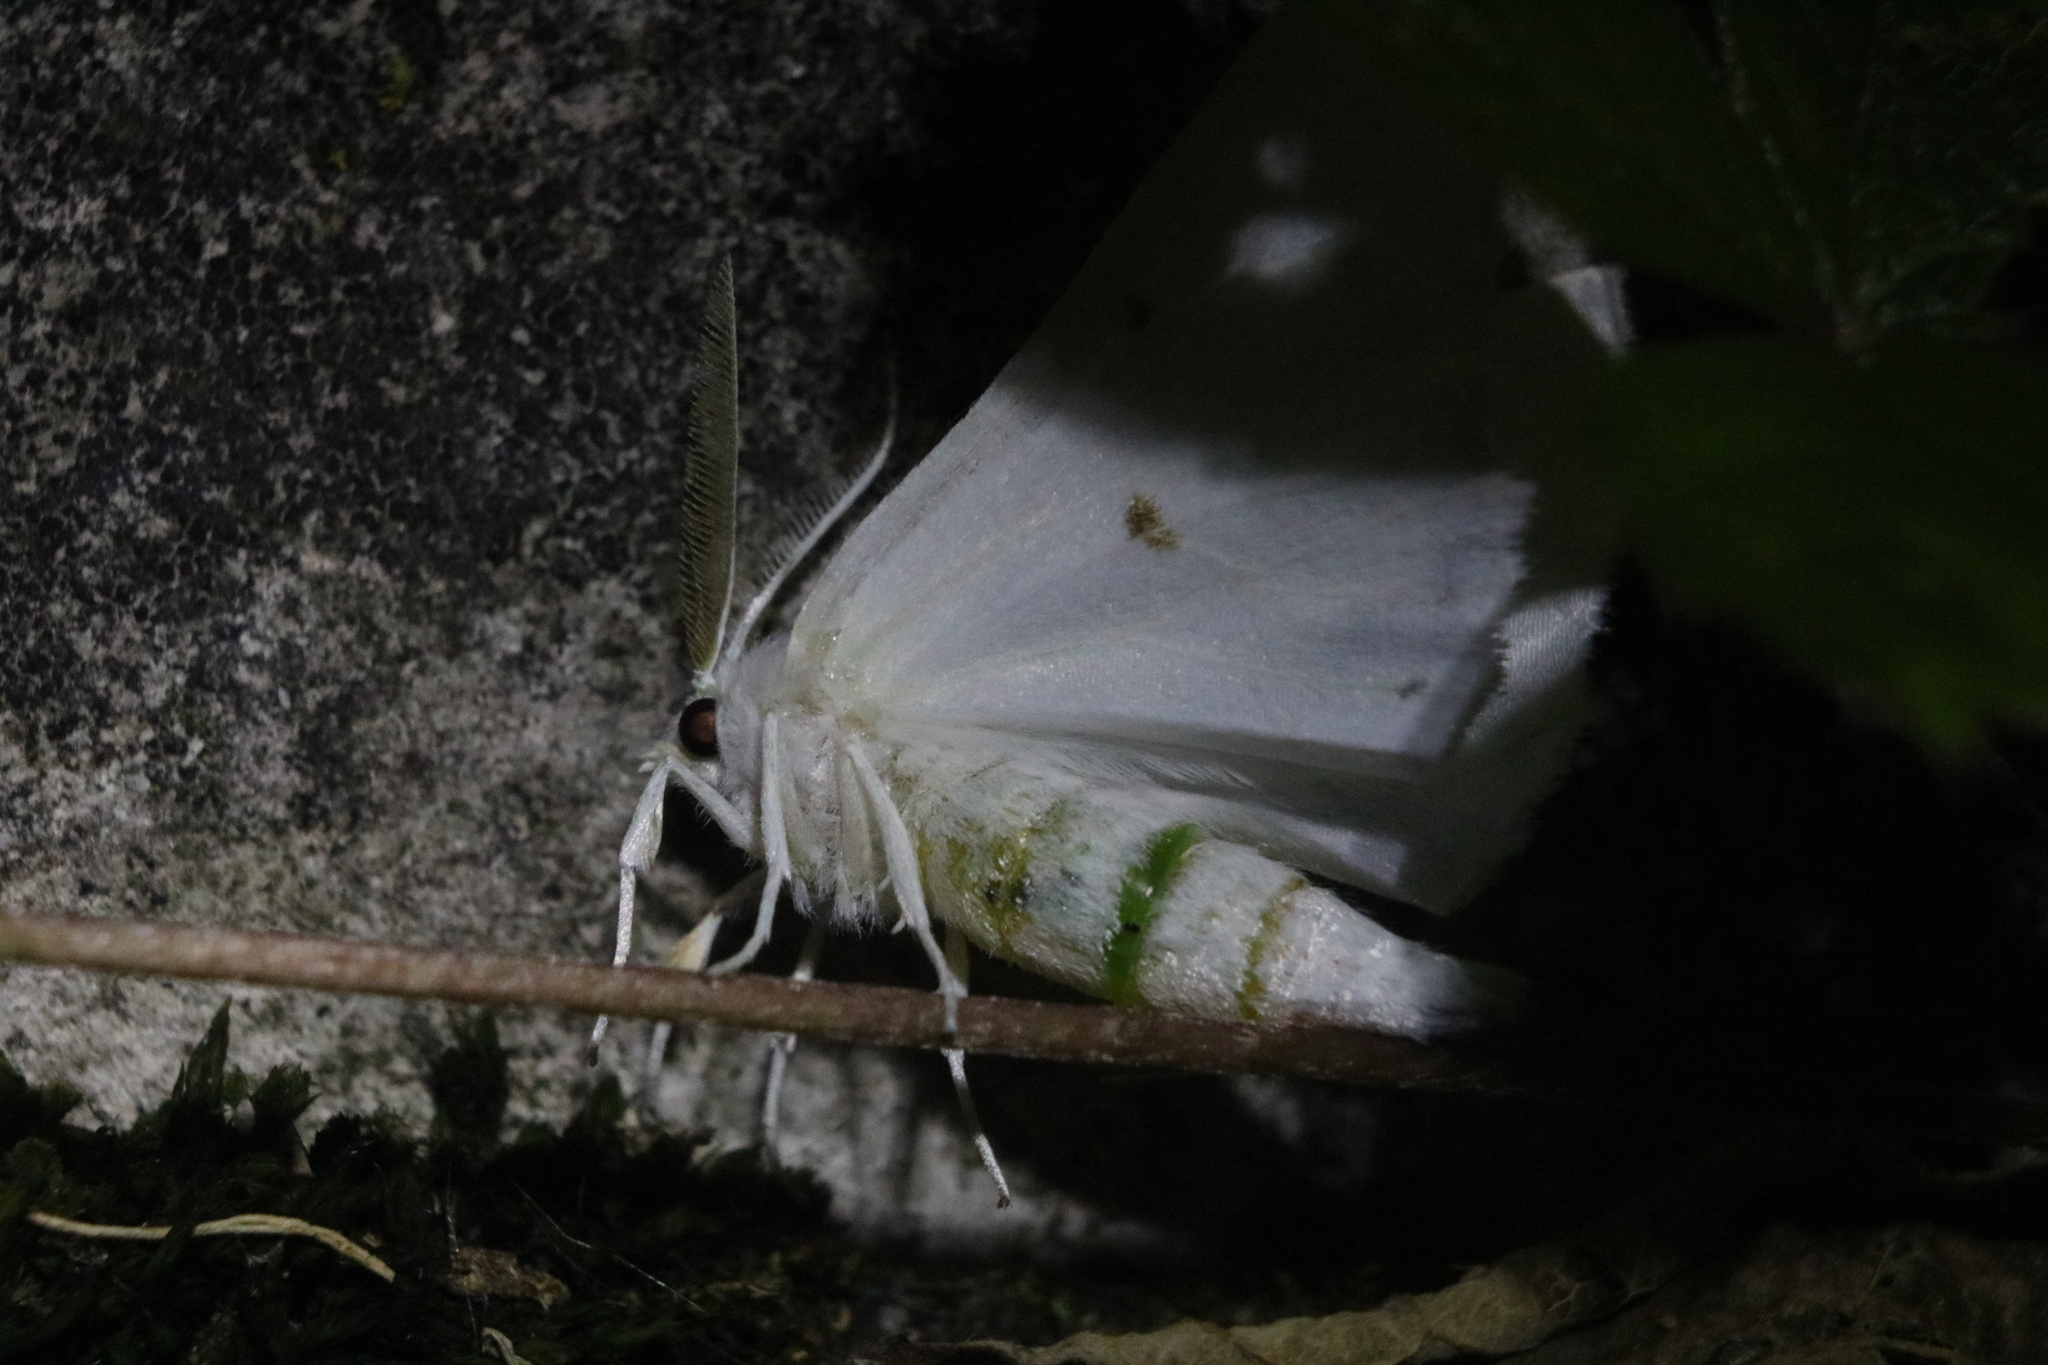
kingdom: Animalia
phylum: Arthropoda
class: Insecta
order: Lepidoptera
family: Geometridae
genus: Ennomos
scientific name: Ennomos subsignaria
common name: Elm spanworm
